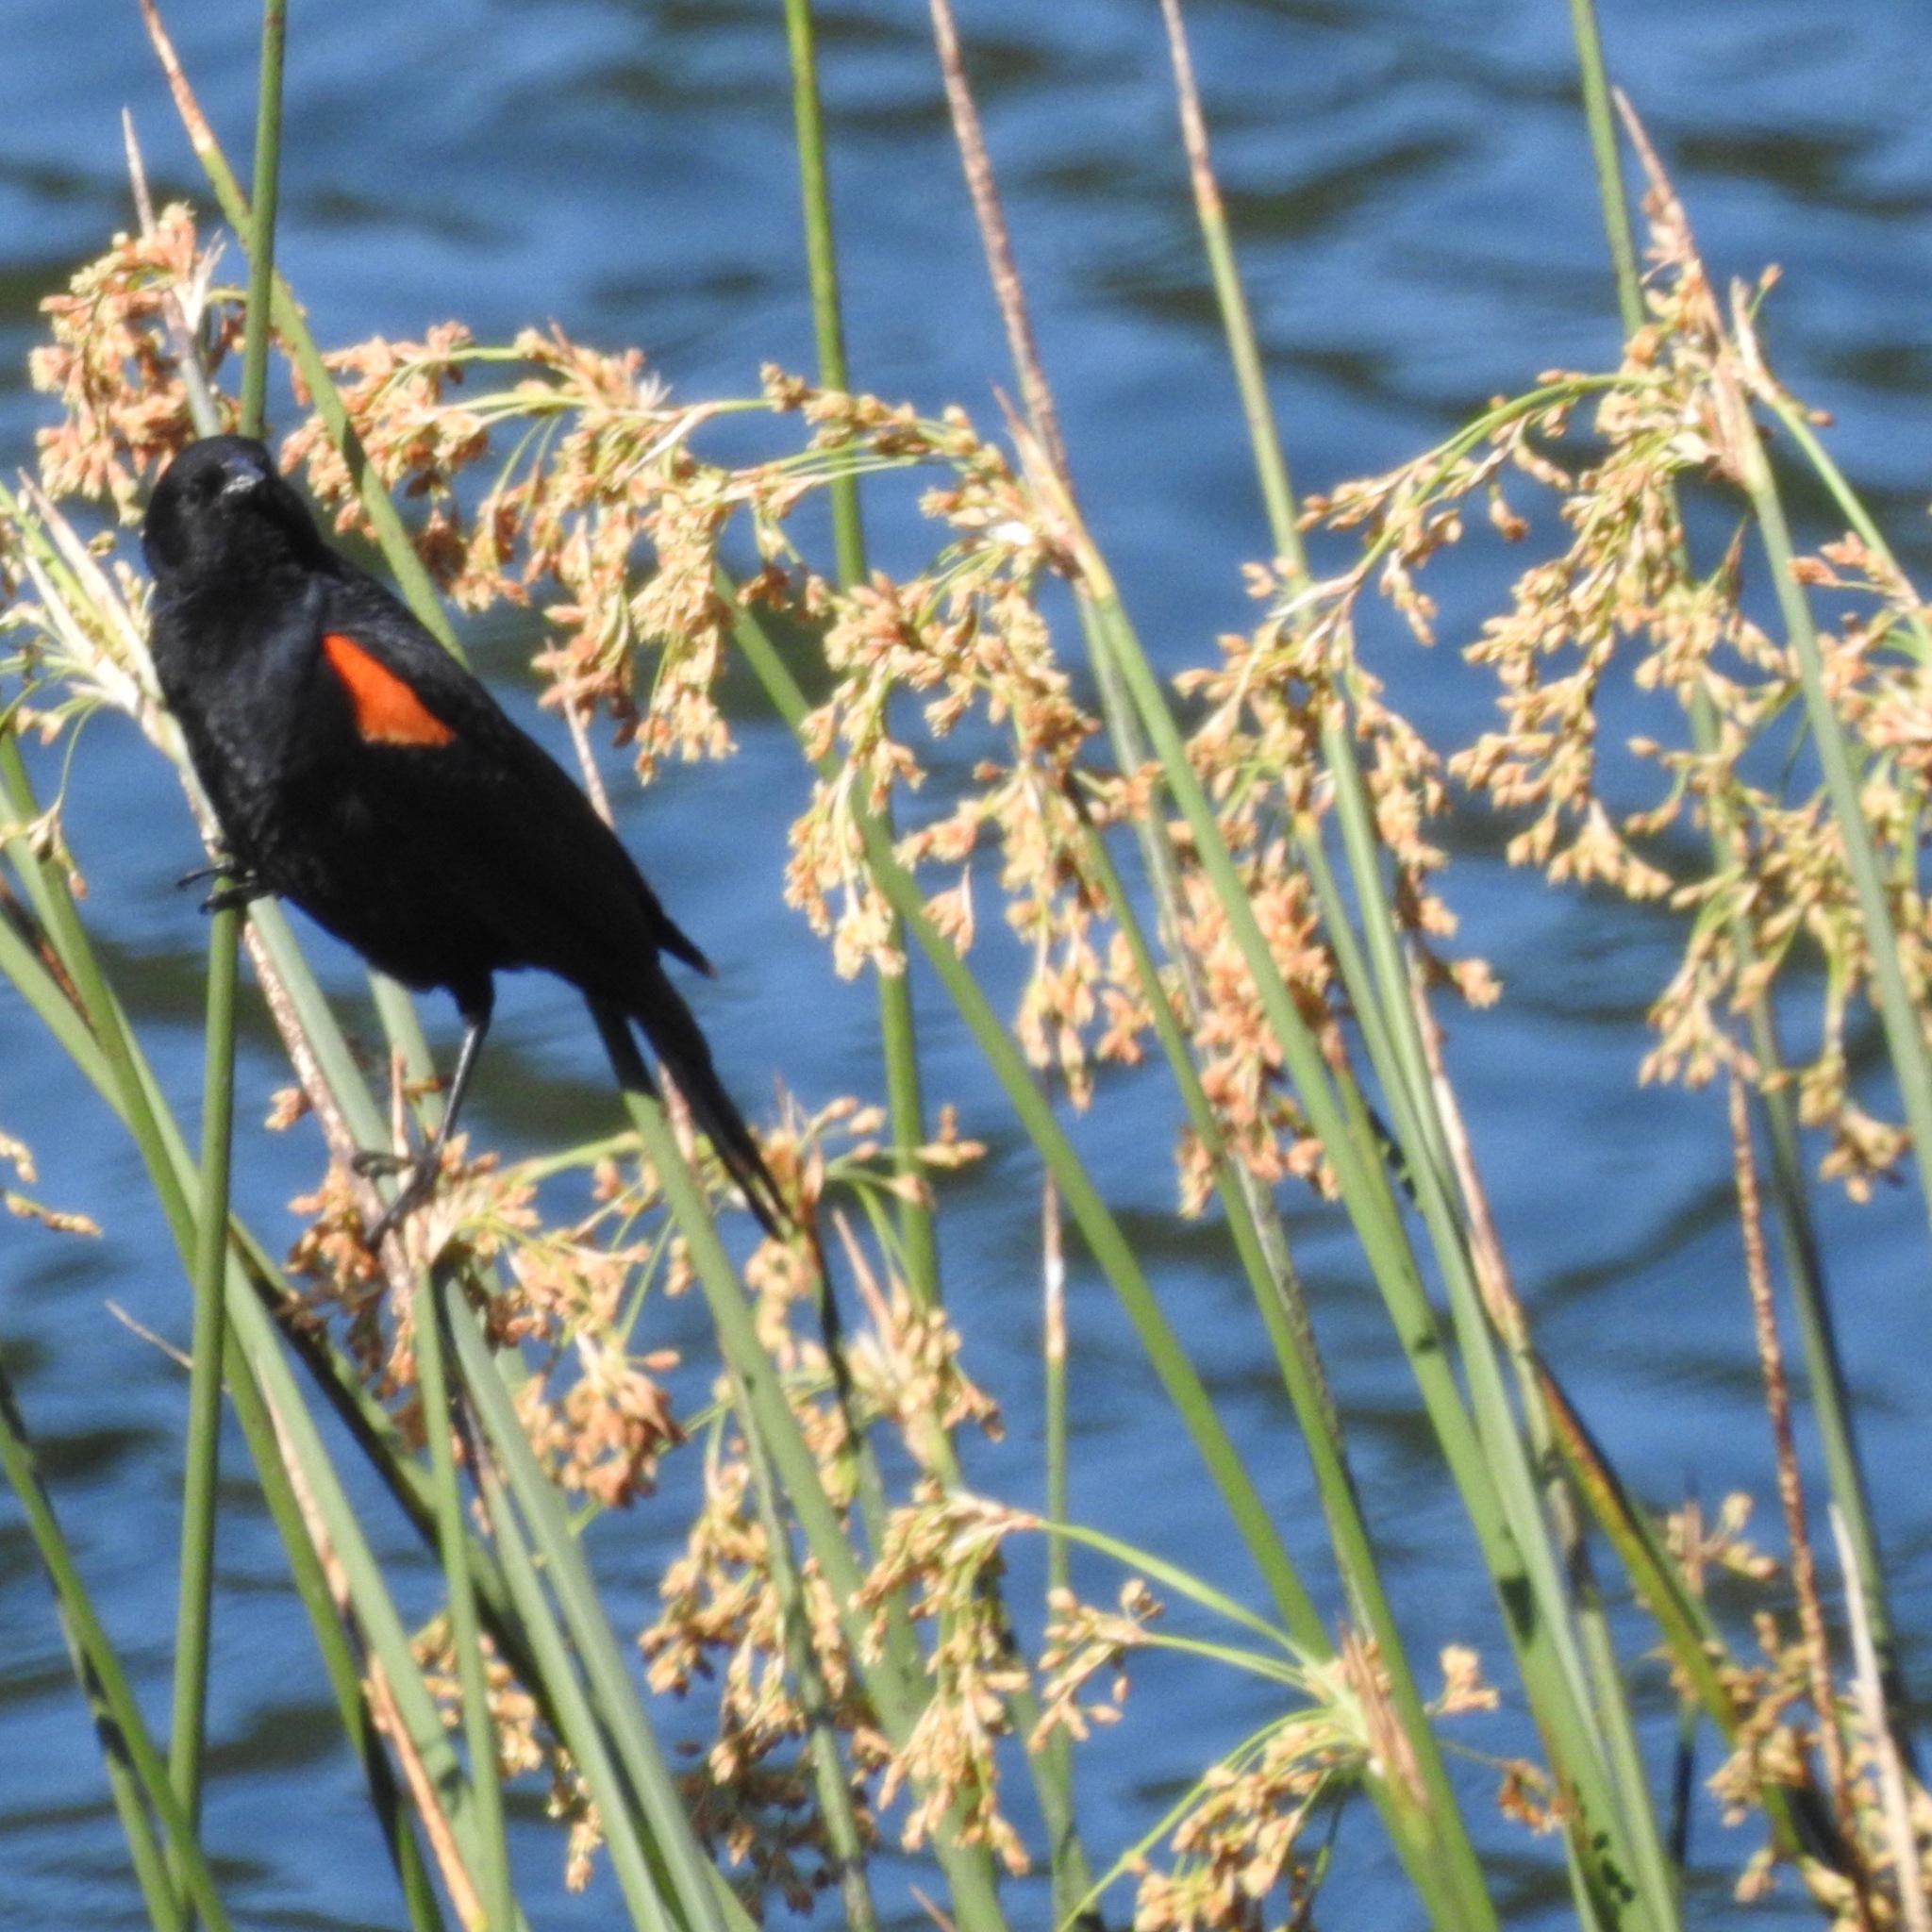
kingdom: Animalia
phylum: Chordata
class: Aves
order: Passeriformes
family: Icteridae
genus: Agelaius
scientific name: Agelaius phoeniceus
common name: Red-winged blackbird
